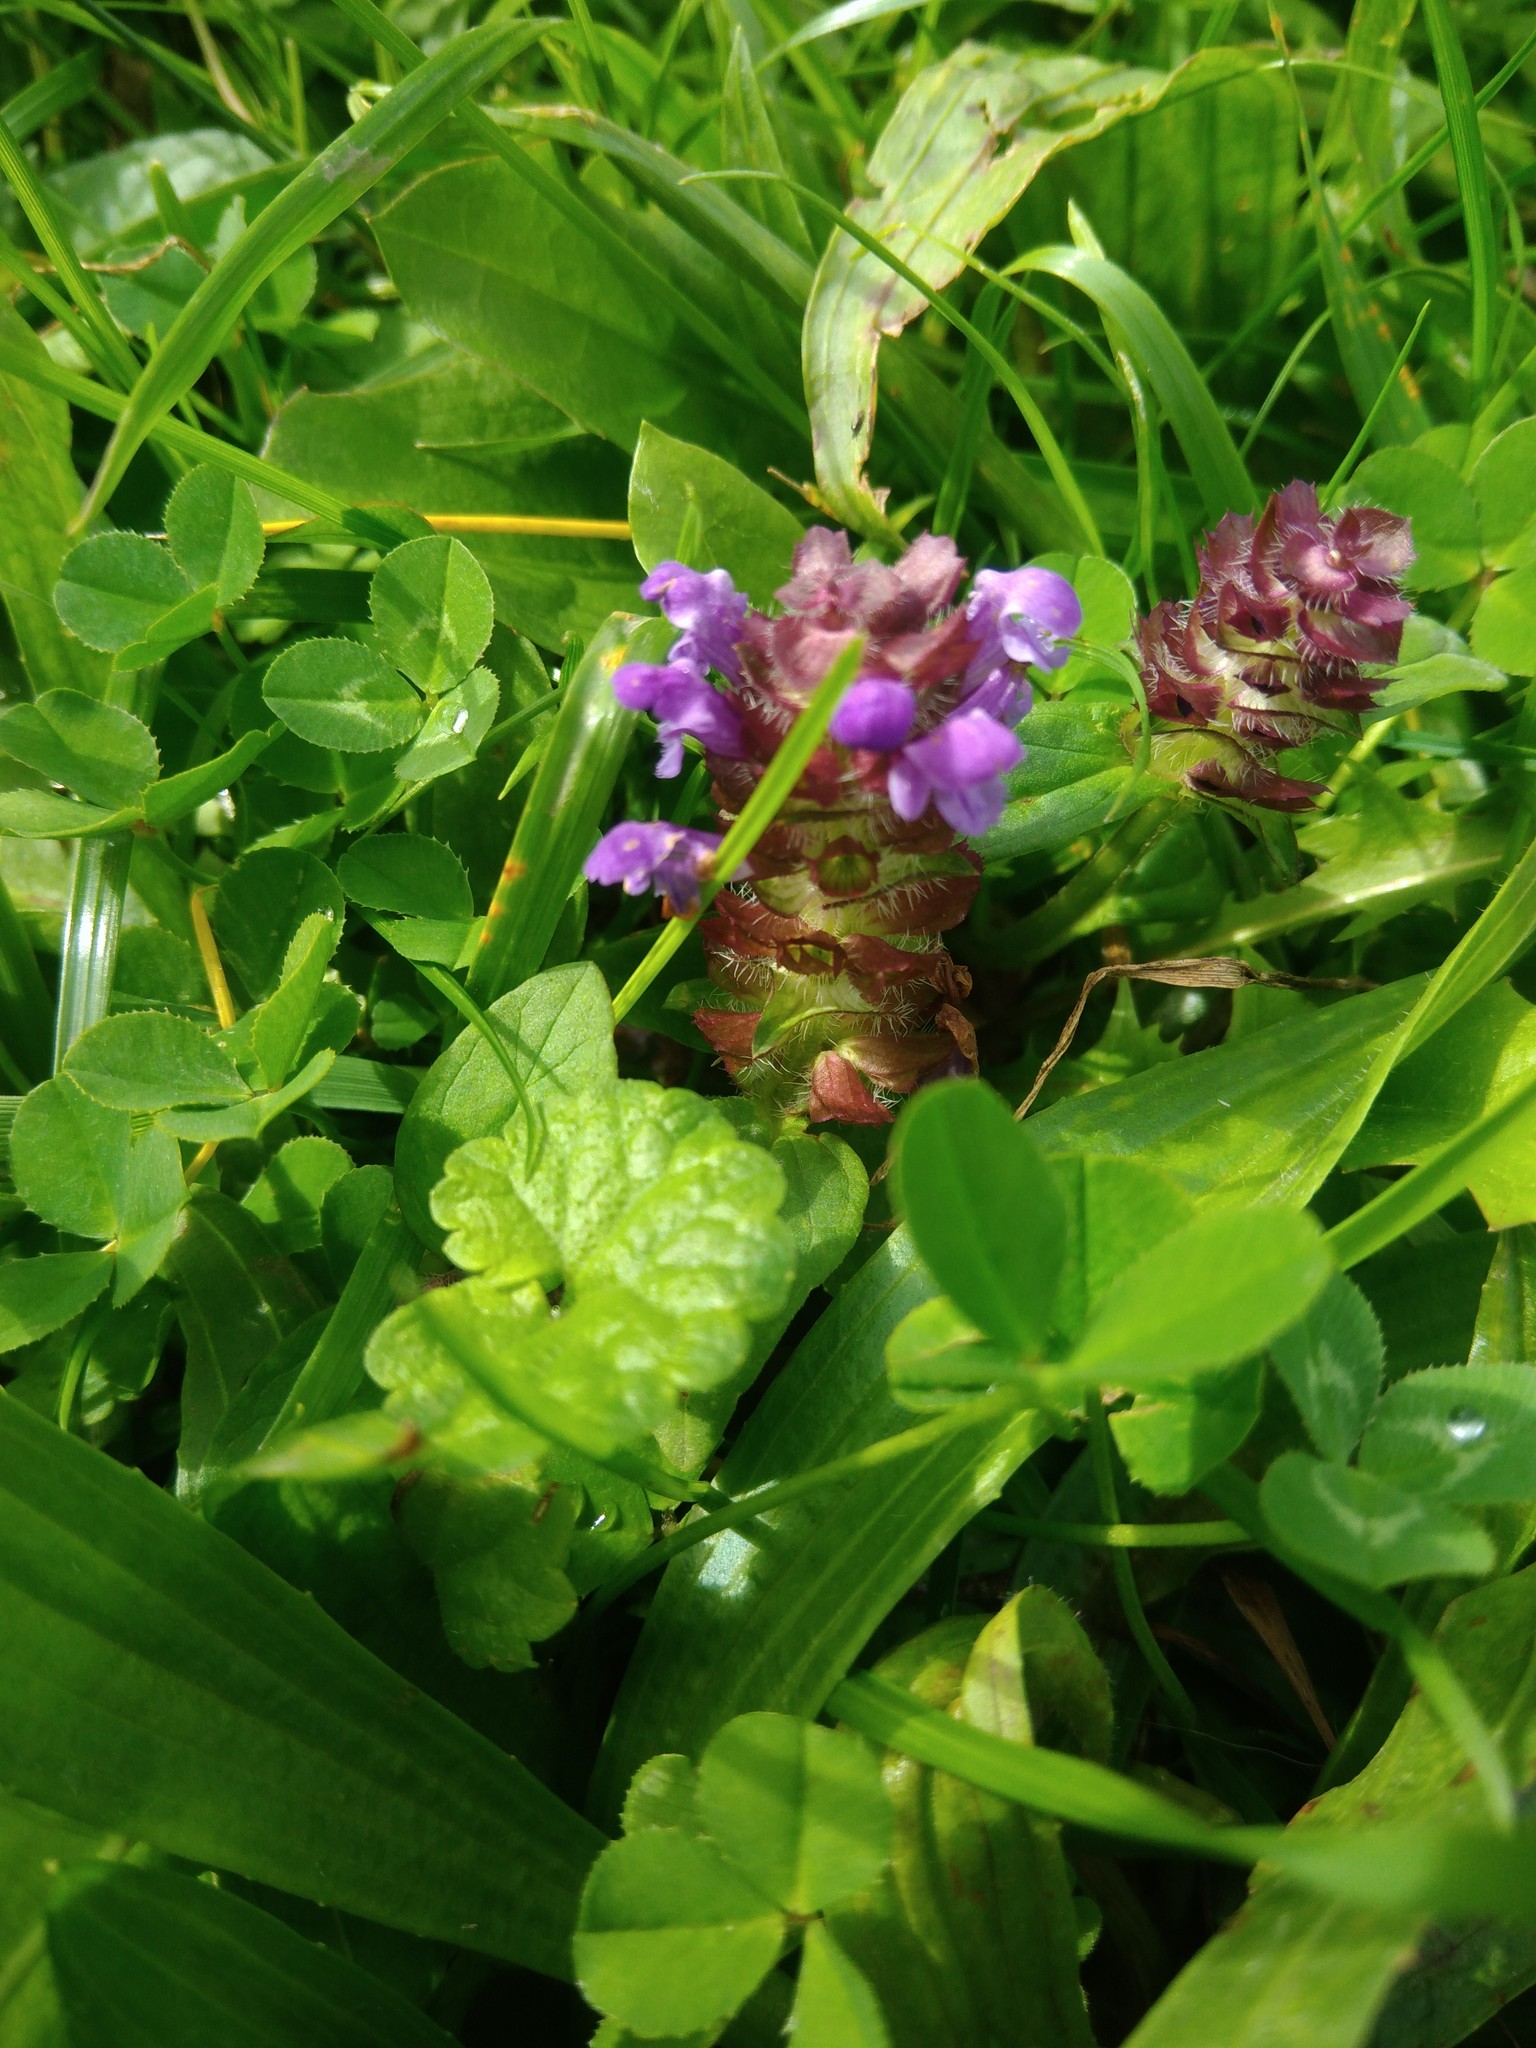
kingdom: Plantae
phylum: Tracheophyta
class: Magnoliopsida
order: Lamiales
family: Lamiaceae
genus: Prunella
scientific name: Prunella vulgaris
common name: Heal-all
